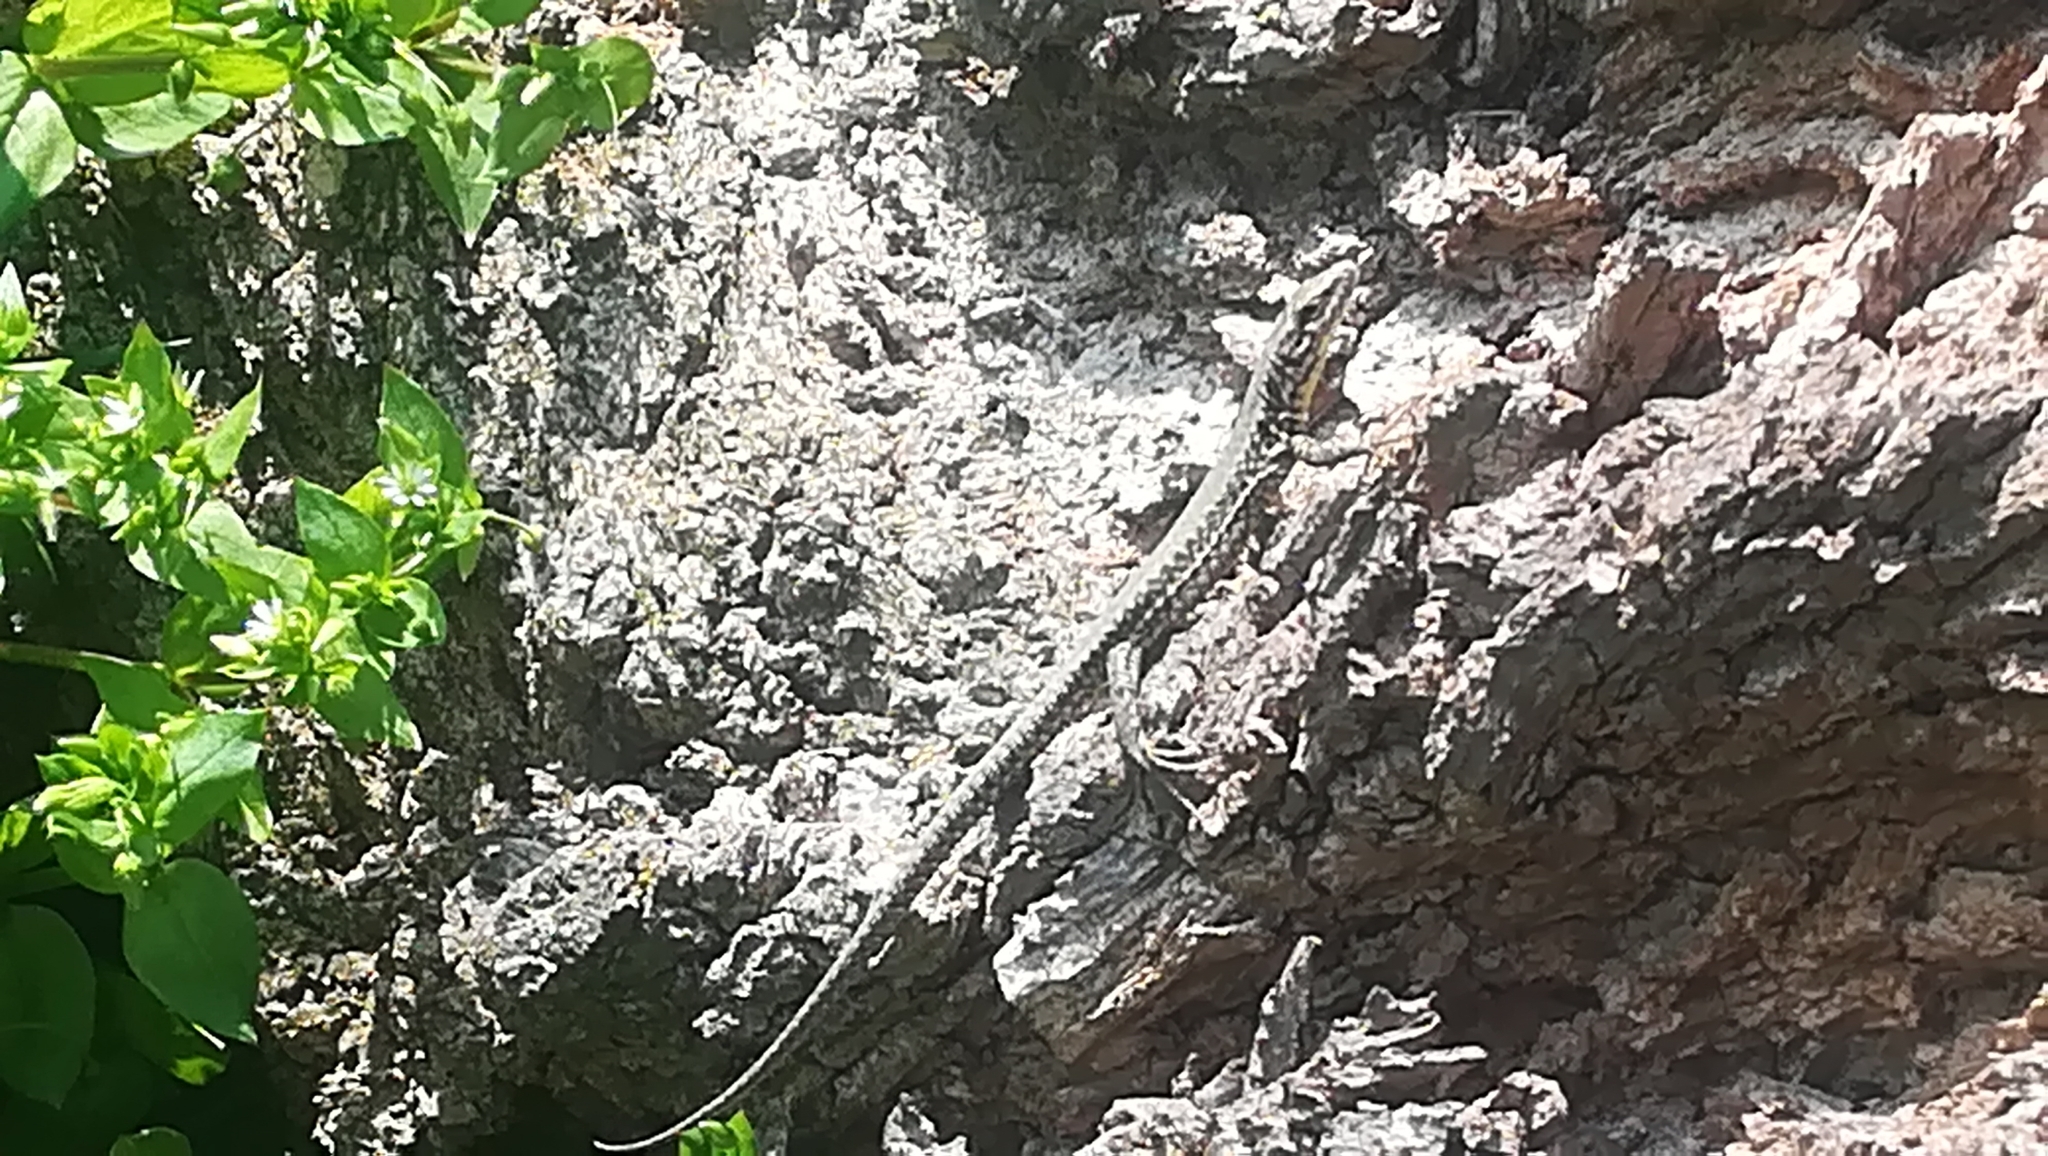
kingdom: Animalia
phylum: Chordata
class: Squamata
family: Lacertidae
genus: Podarcis
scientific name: Podarcis muralis
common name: Common wall lizard
